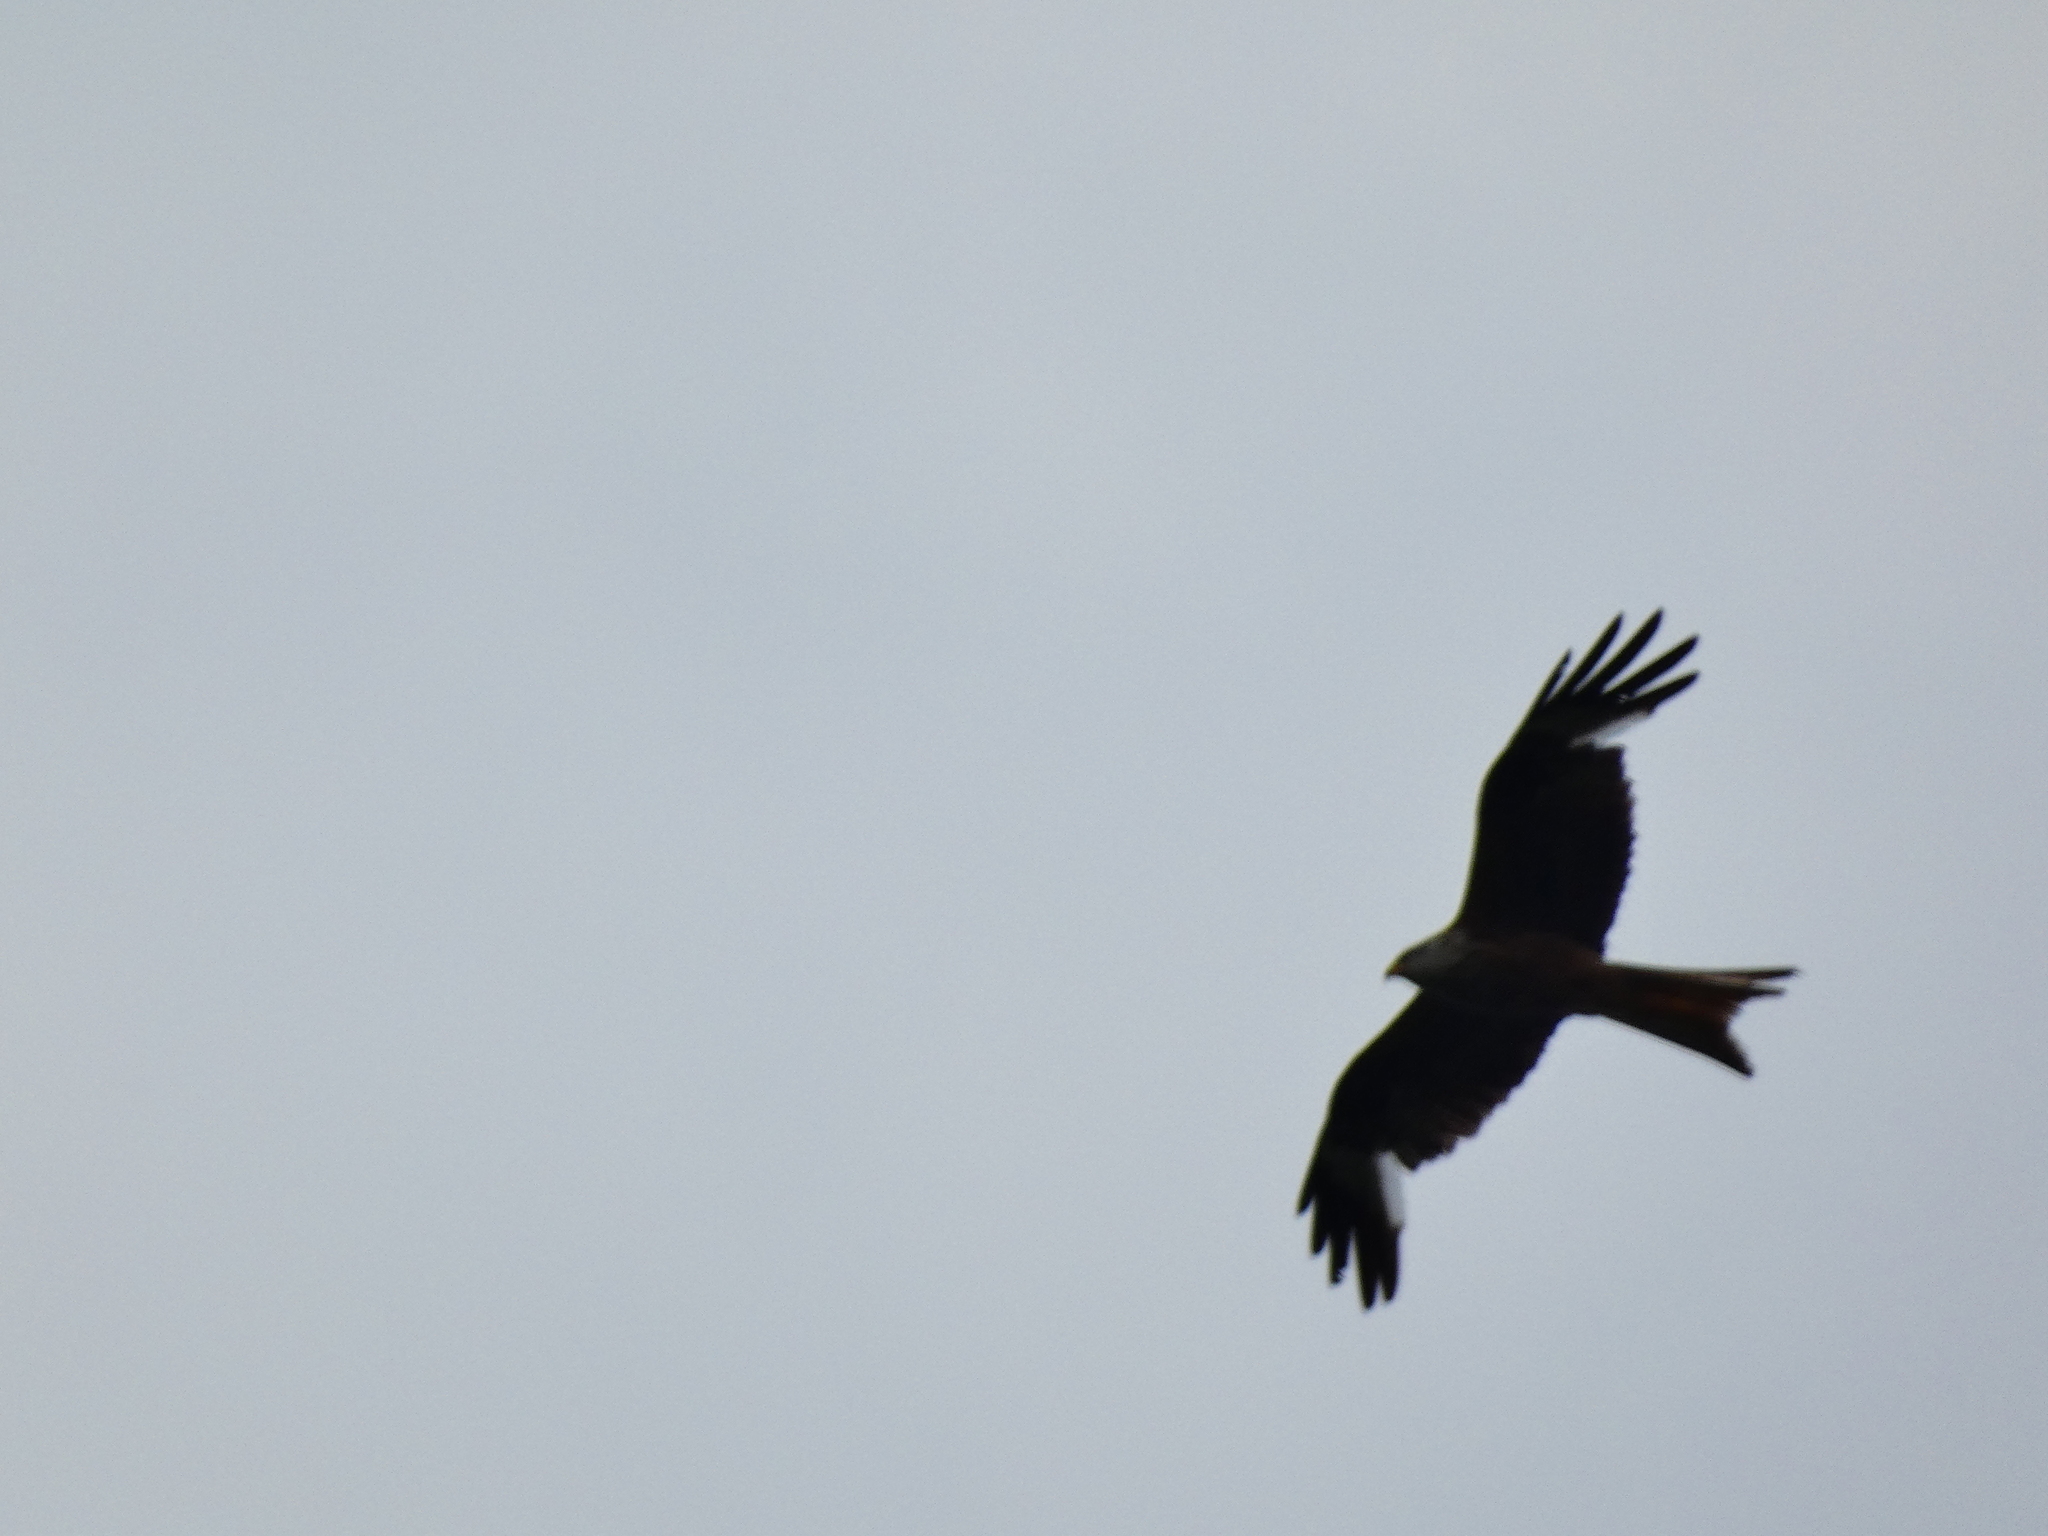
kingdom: Animalia
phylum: Chordata
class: Aves
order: Accipitriformes
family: Accipitridae
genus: Milvus
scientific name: Milvus milvus
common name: Red kite
